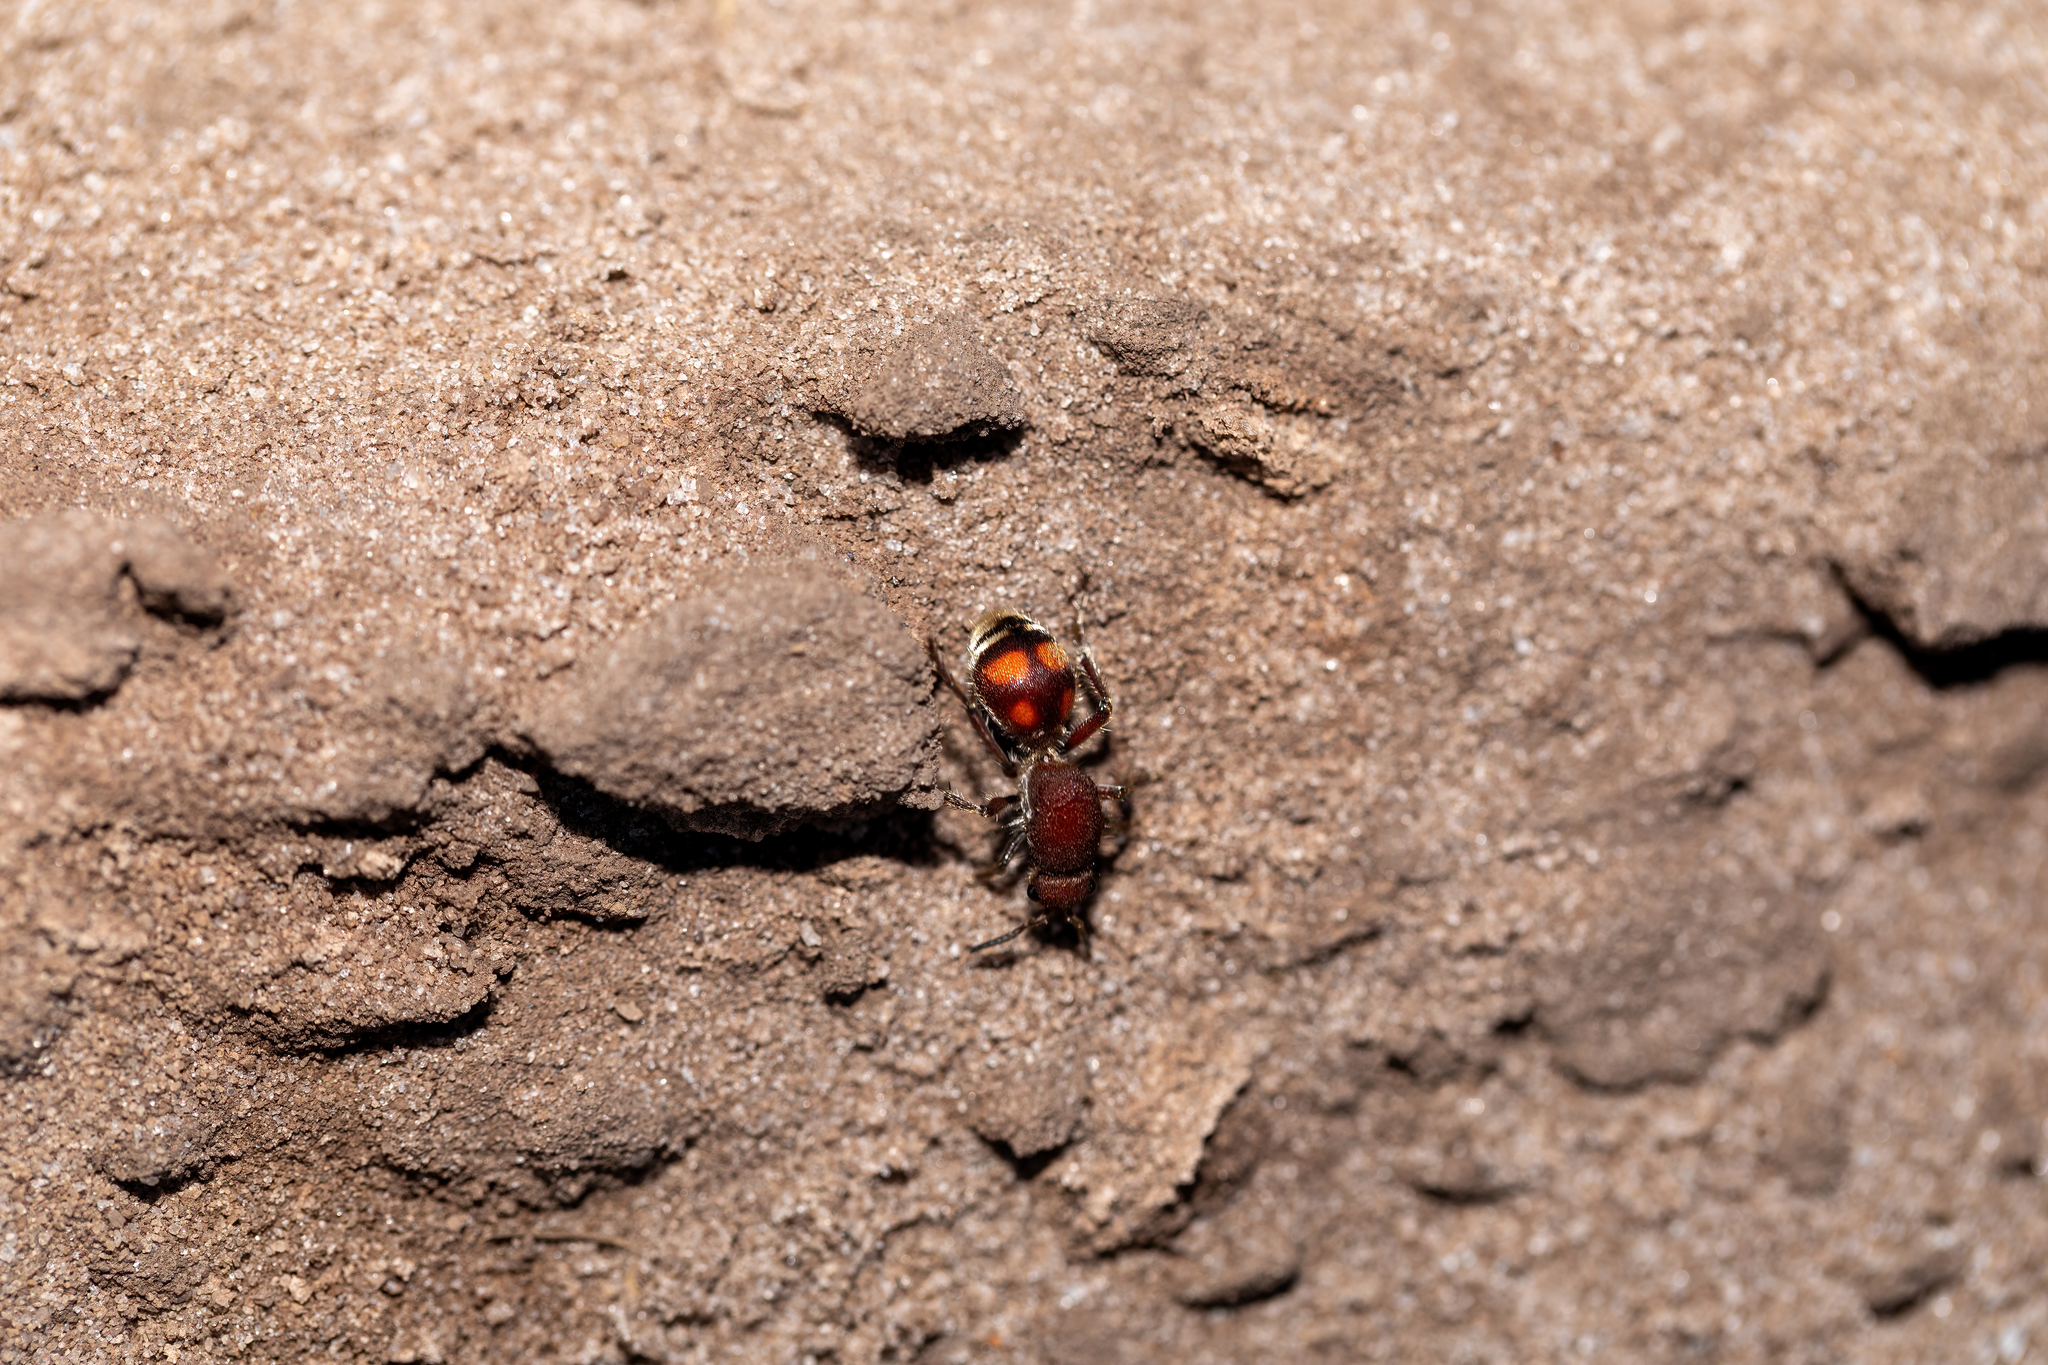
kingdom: Animalia
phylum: Arthropoda
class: Insecta
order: Hymenoptera
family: Mutillidae
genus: Dasymutilla
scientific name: Dasymutilla
